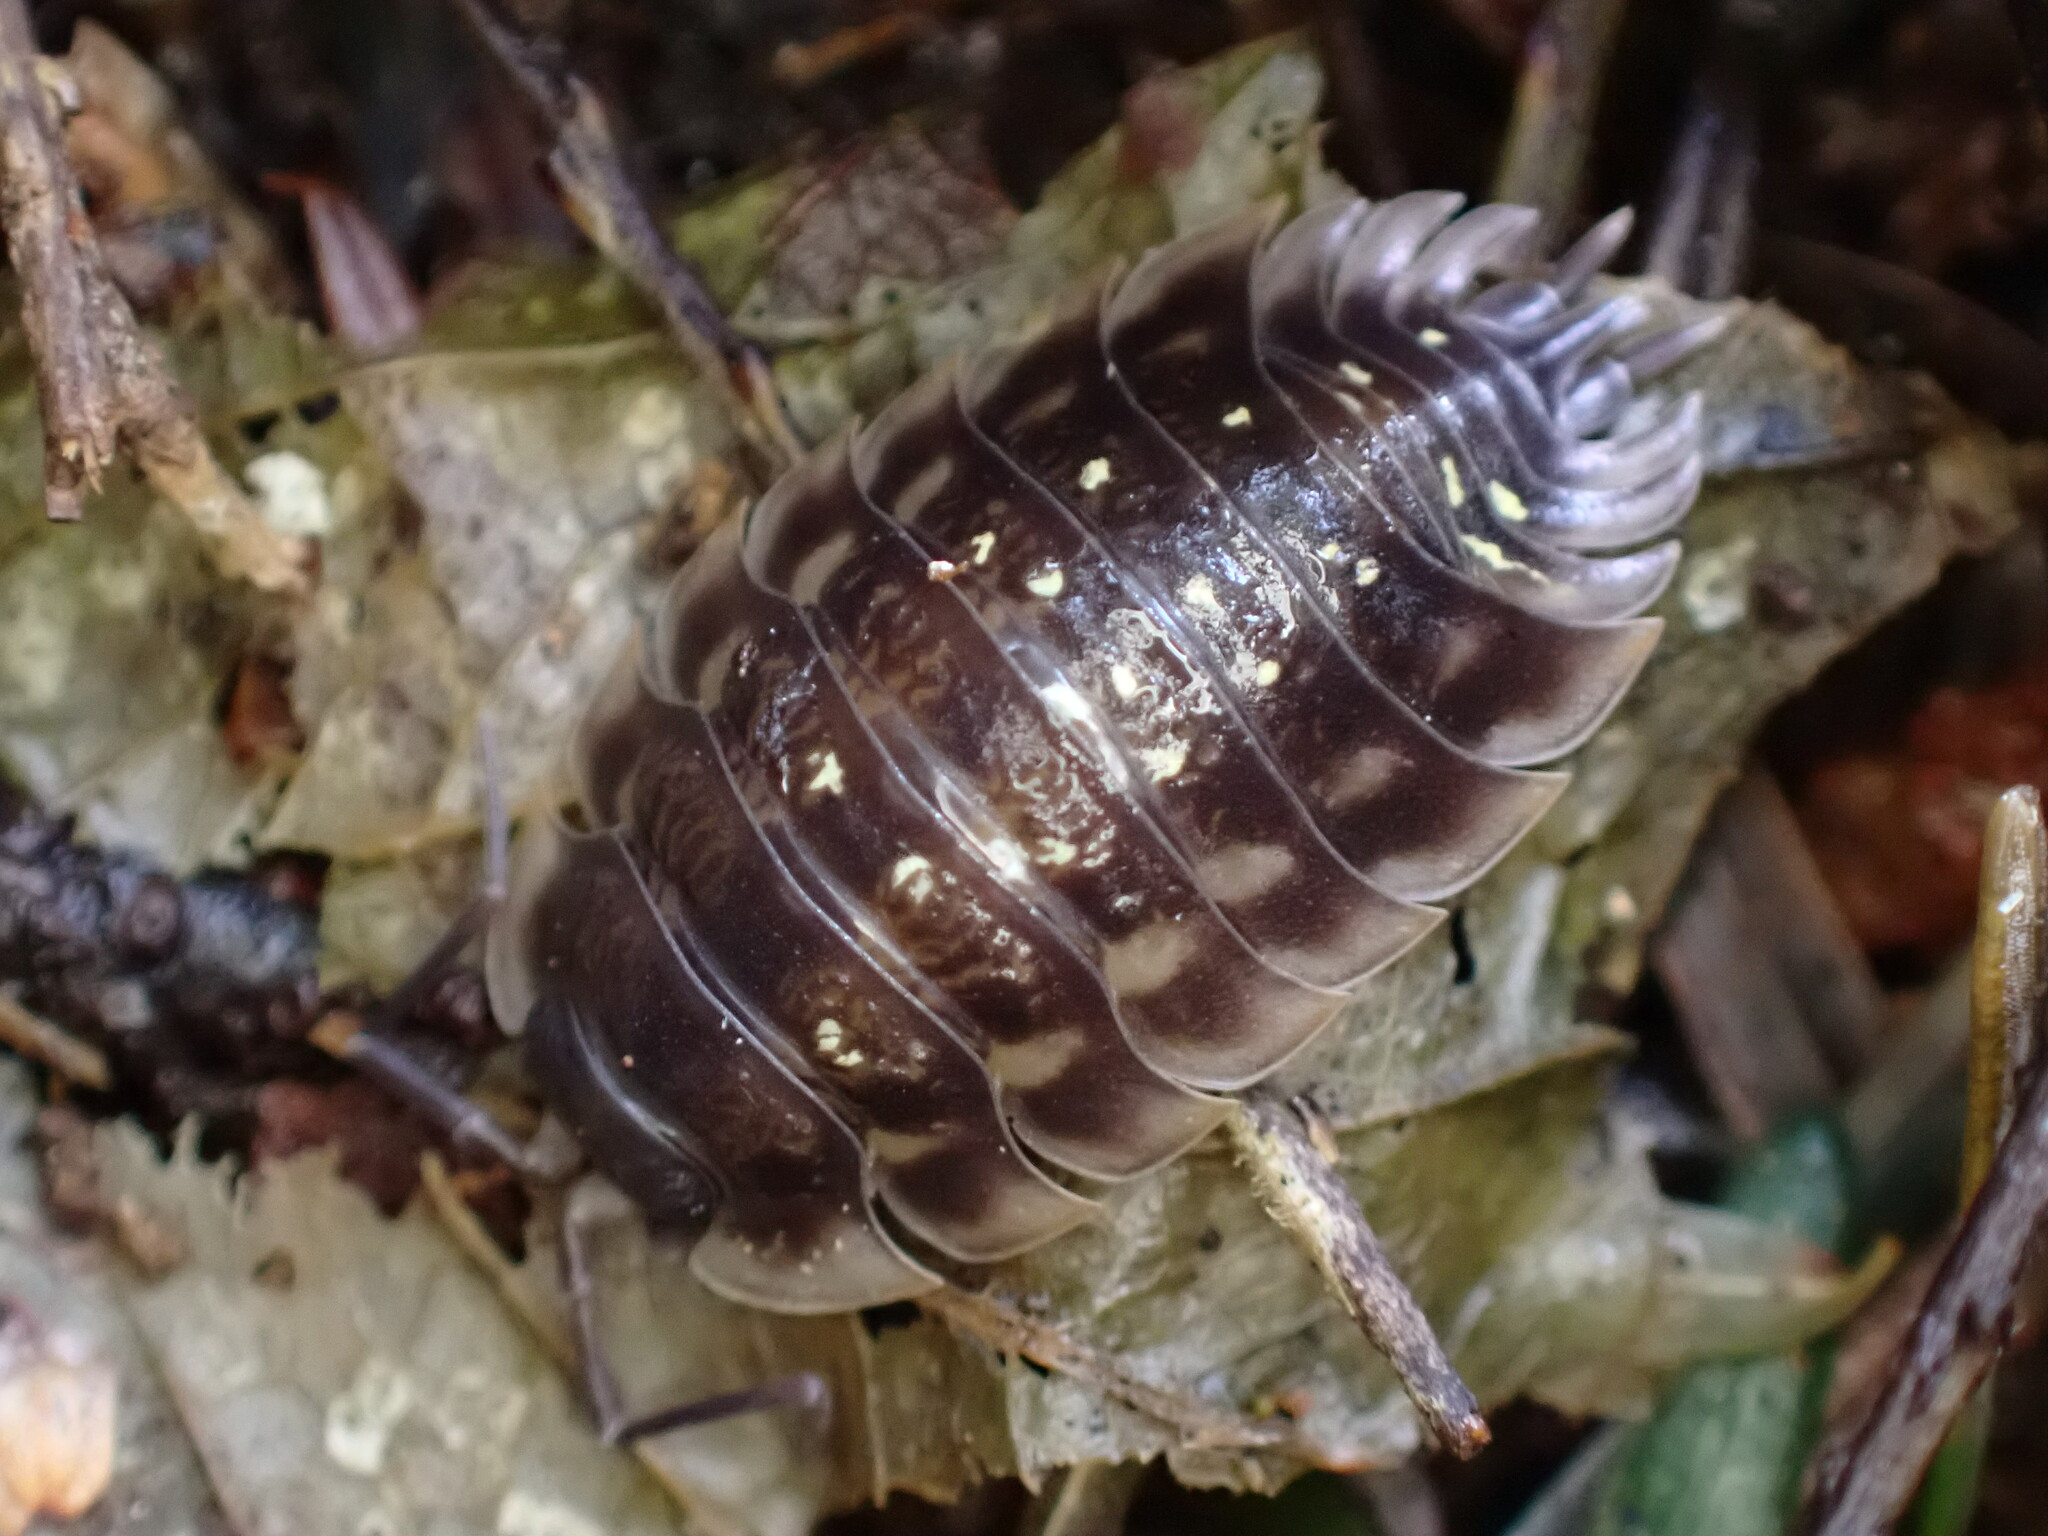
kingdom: Animalia
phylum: Arthropoda
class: Malacostraca
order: Isopoda
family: Oniscidae
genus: Oniscus
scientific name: Oniscus asellus
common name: Common shiny woodlouse
